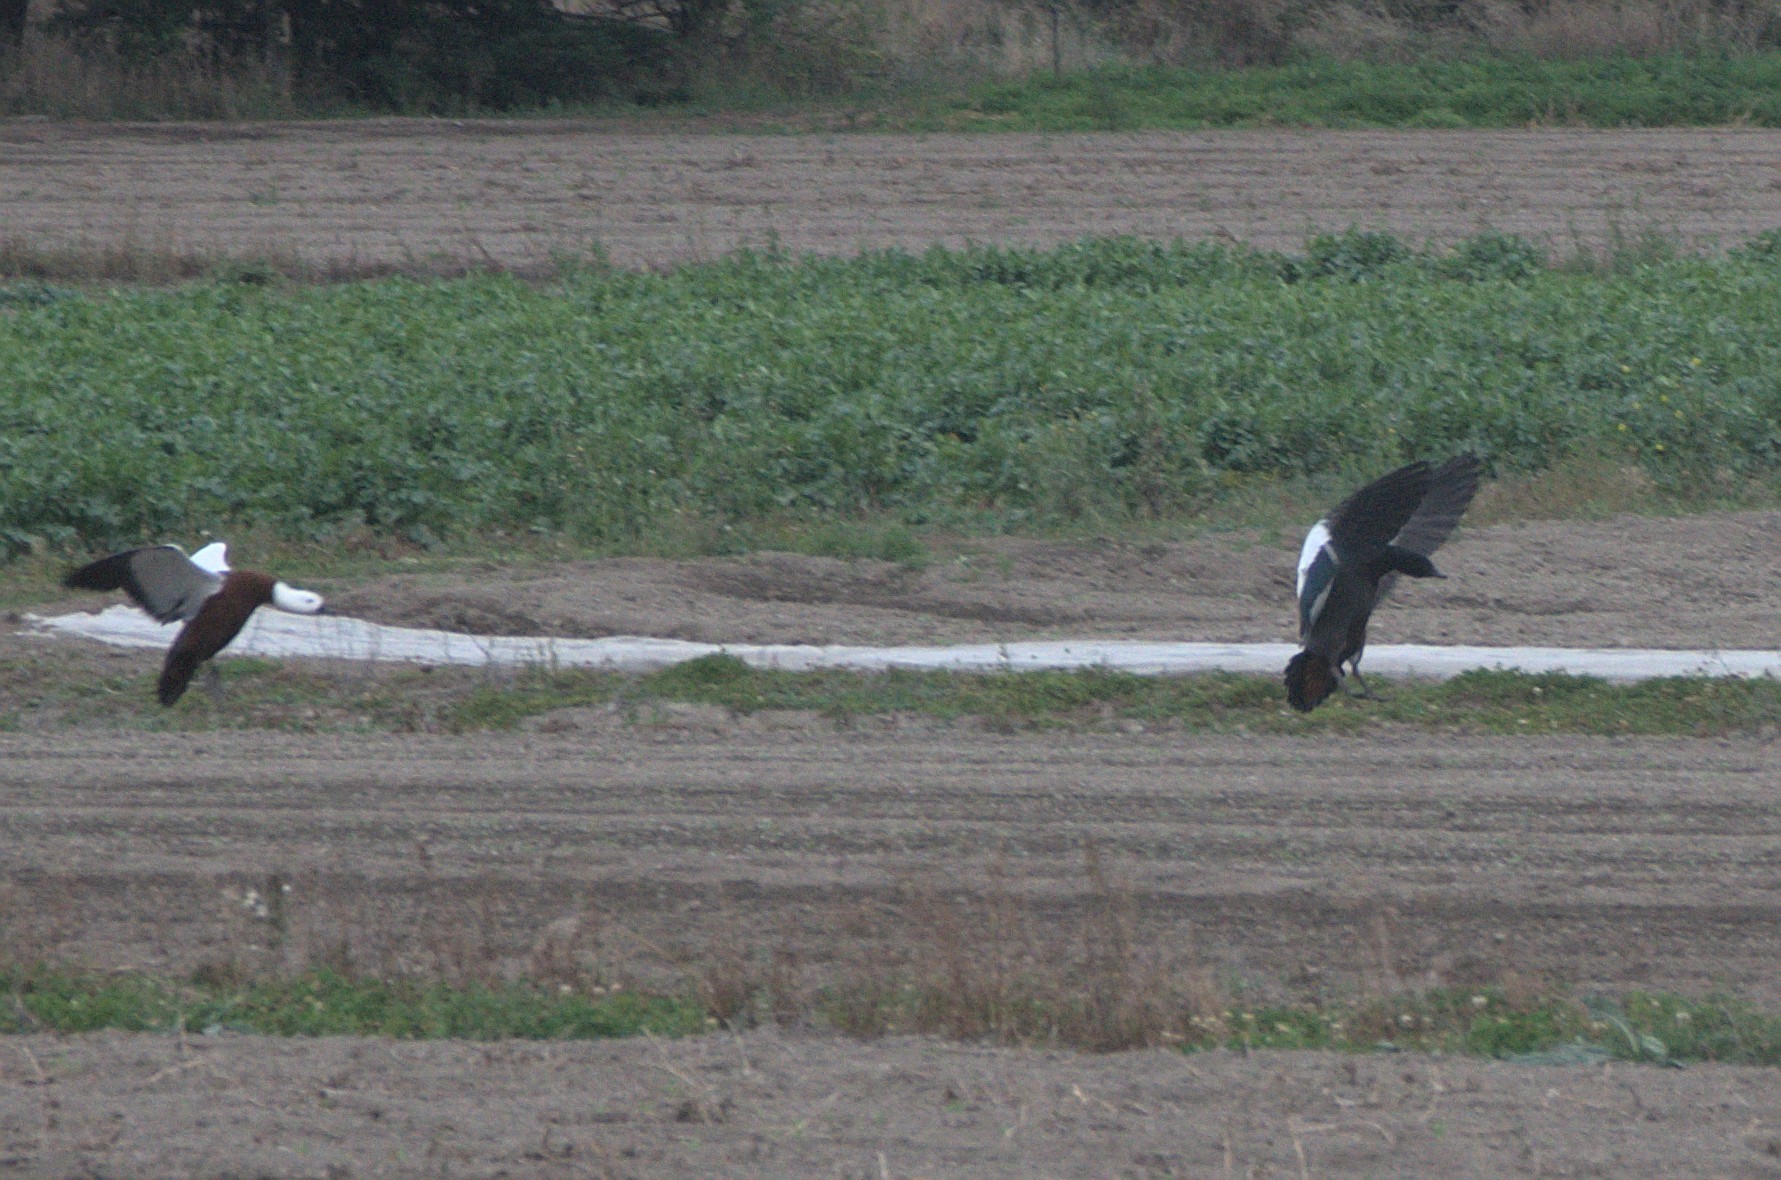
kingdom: Animalia
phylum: Chordata
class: Aves
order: Anseriformes
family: Anatidae
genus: Tadorna
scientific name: Tadorna variegata
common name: Paradise shelduck
